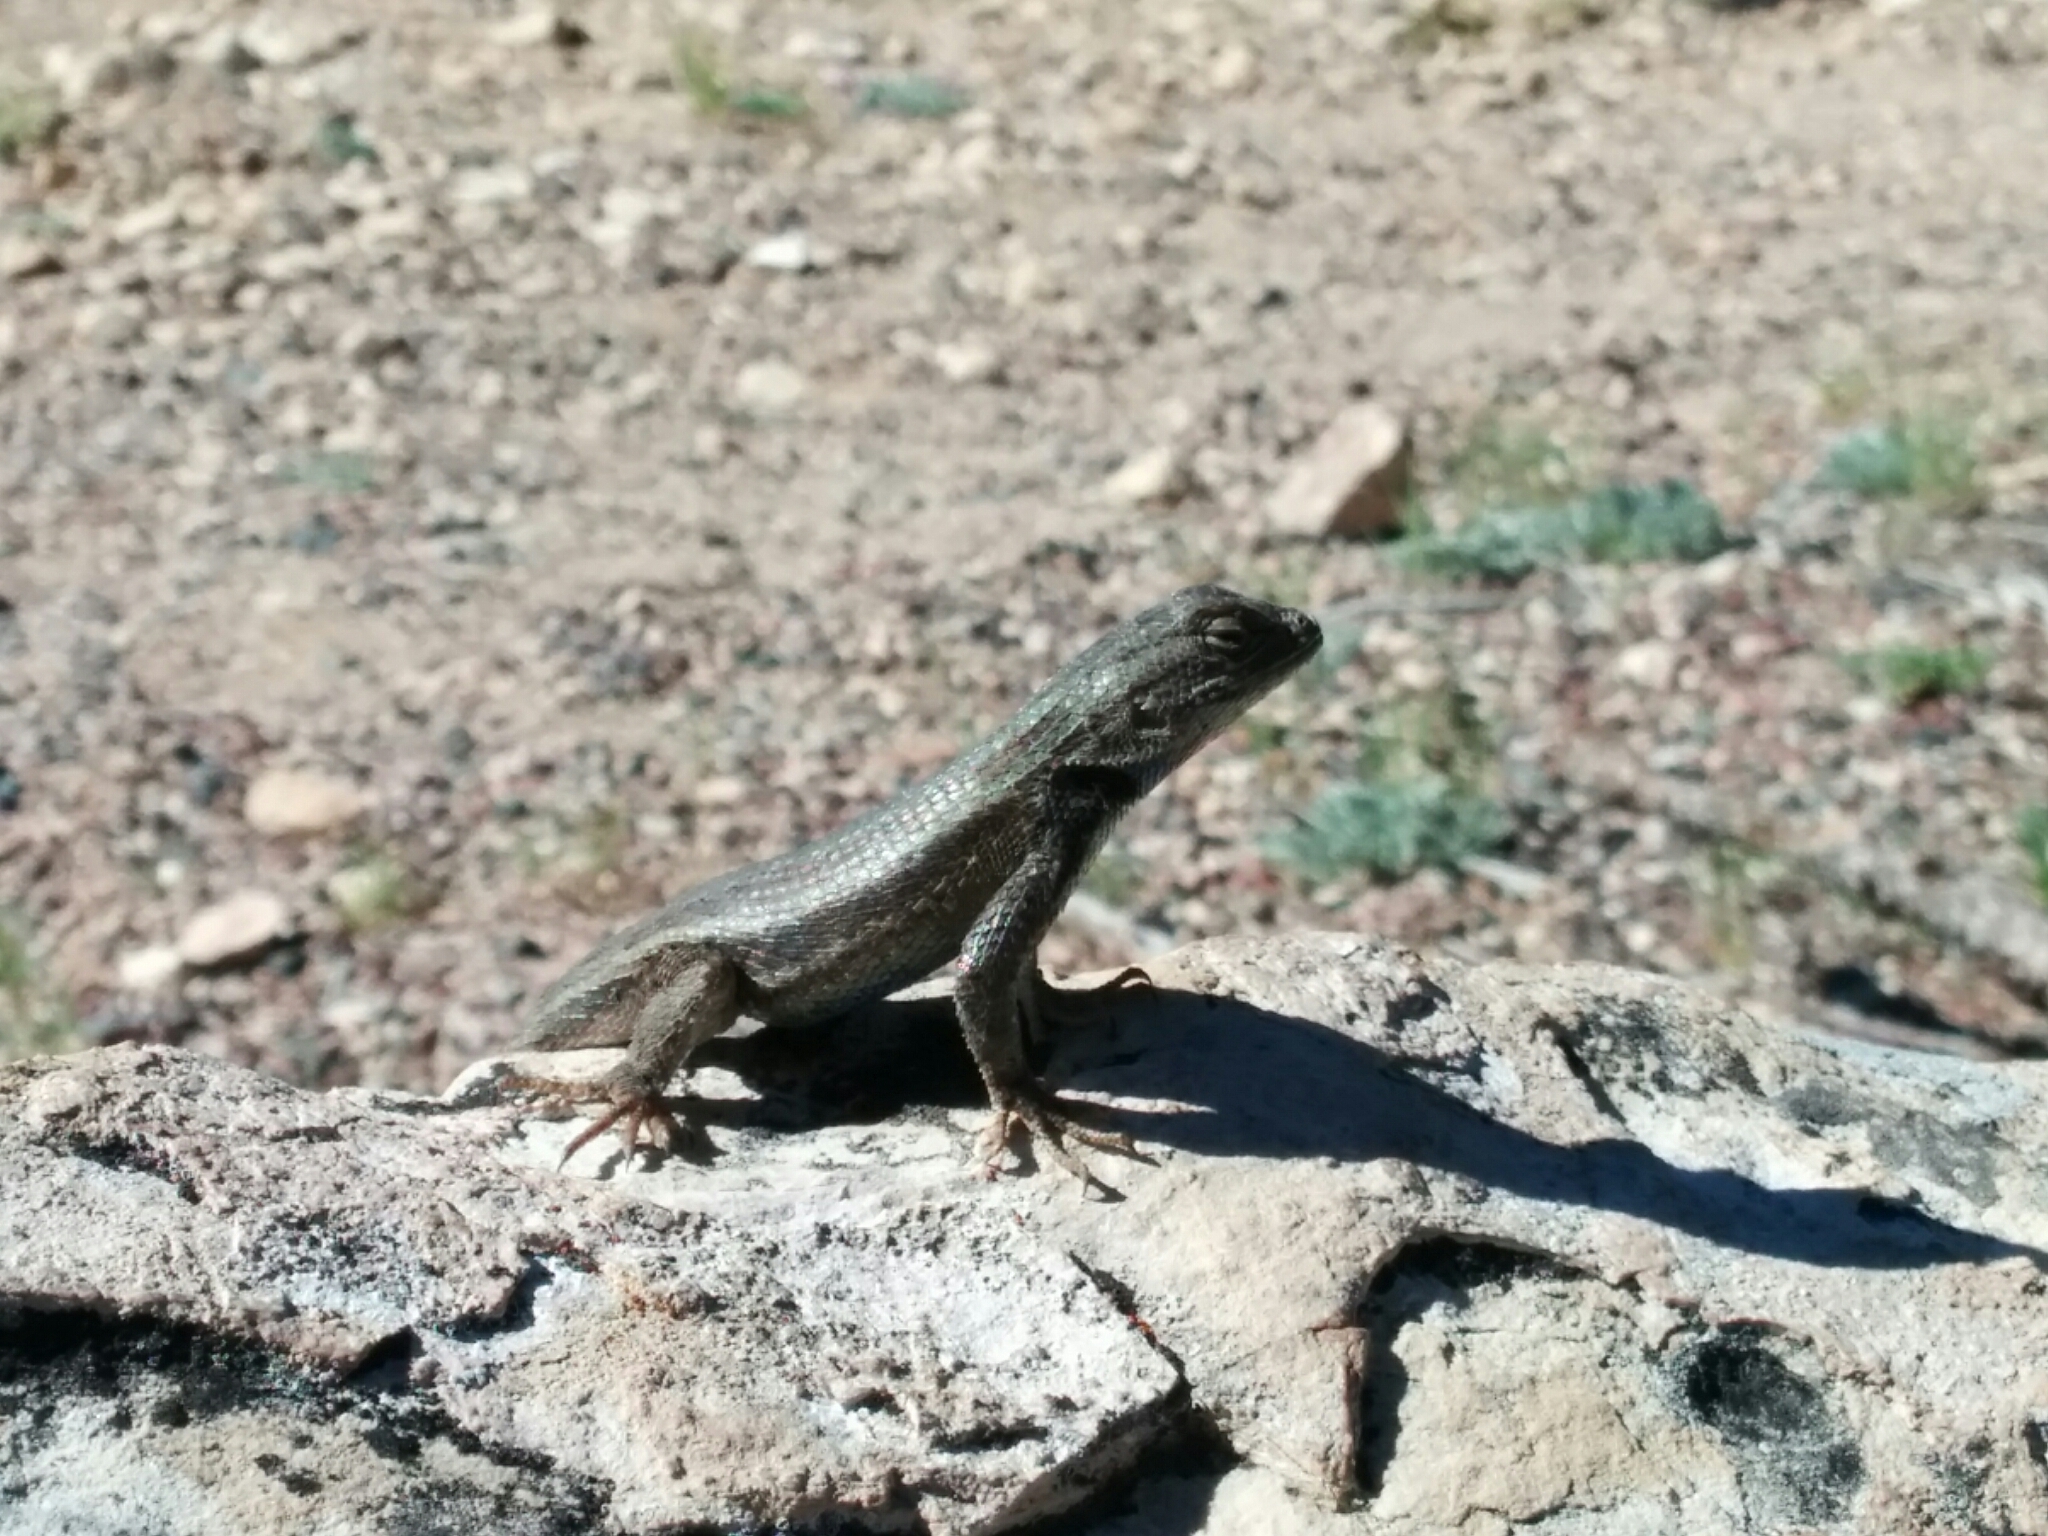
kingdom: Animalia
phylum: Chordata
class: Squamata
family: Phrynosomatidae
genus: Sceloporus
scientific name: Sceloporus tristichus
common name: Plateau fence lizard
